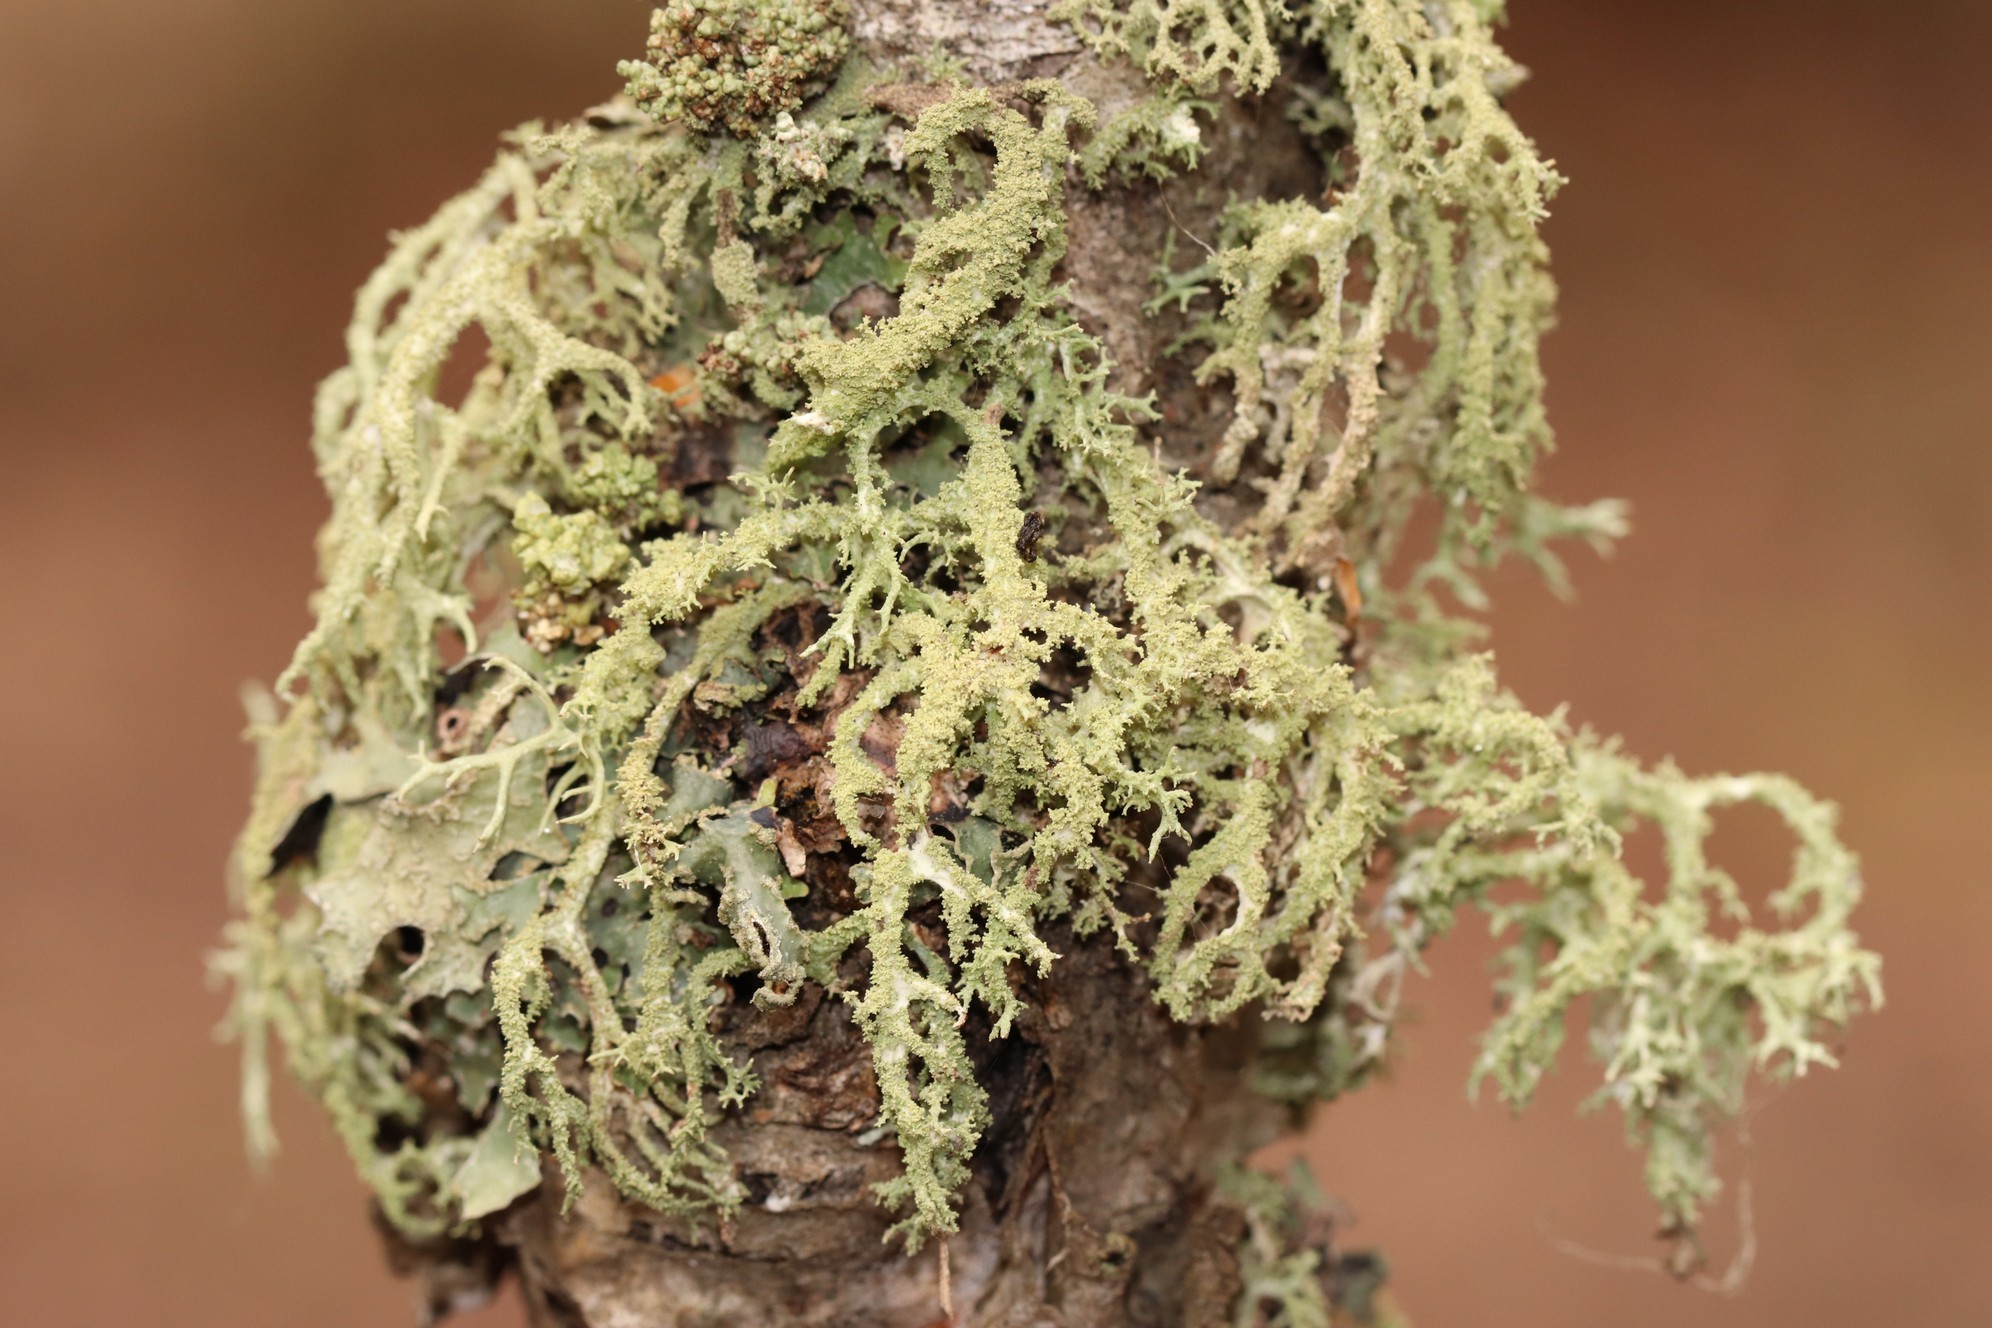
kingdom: Fungi
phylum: Ascomycota
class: Lecanoromycetes
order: Lecanorales
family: Parmeliaceae
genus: Evernia
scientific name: Evernia mesomorpha
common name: Boreal oak moss lichen
